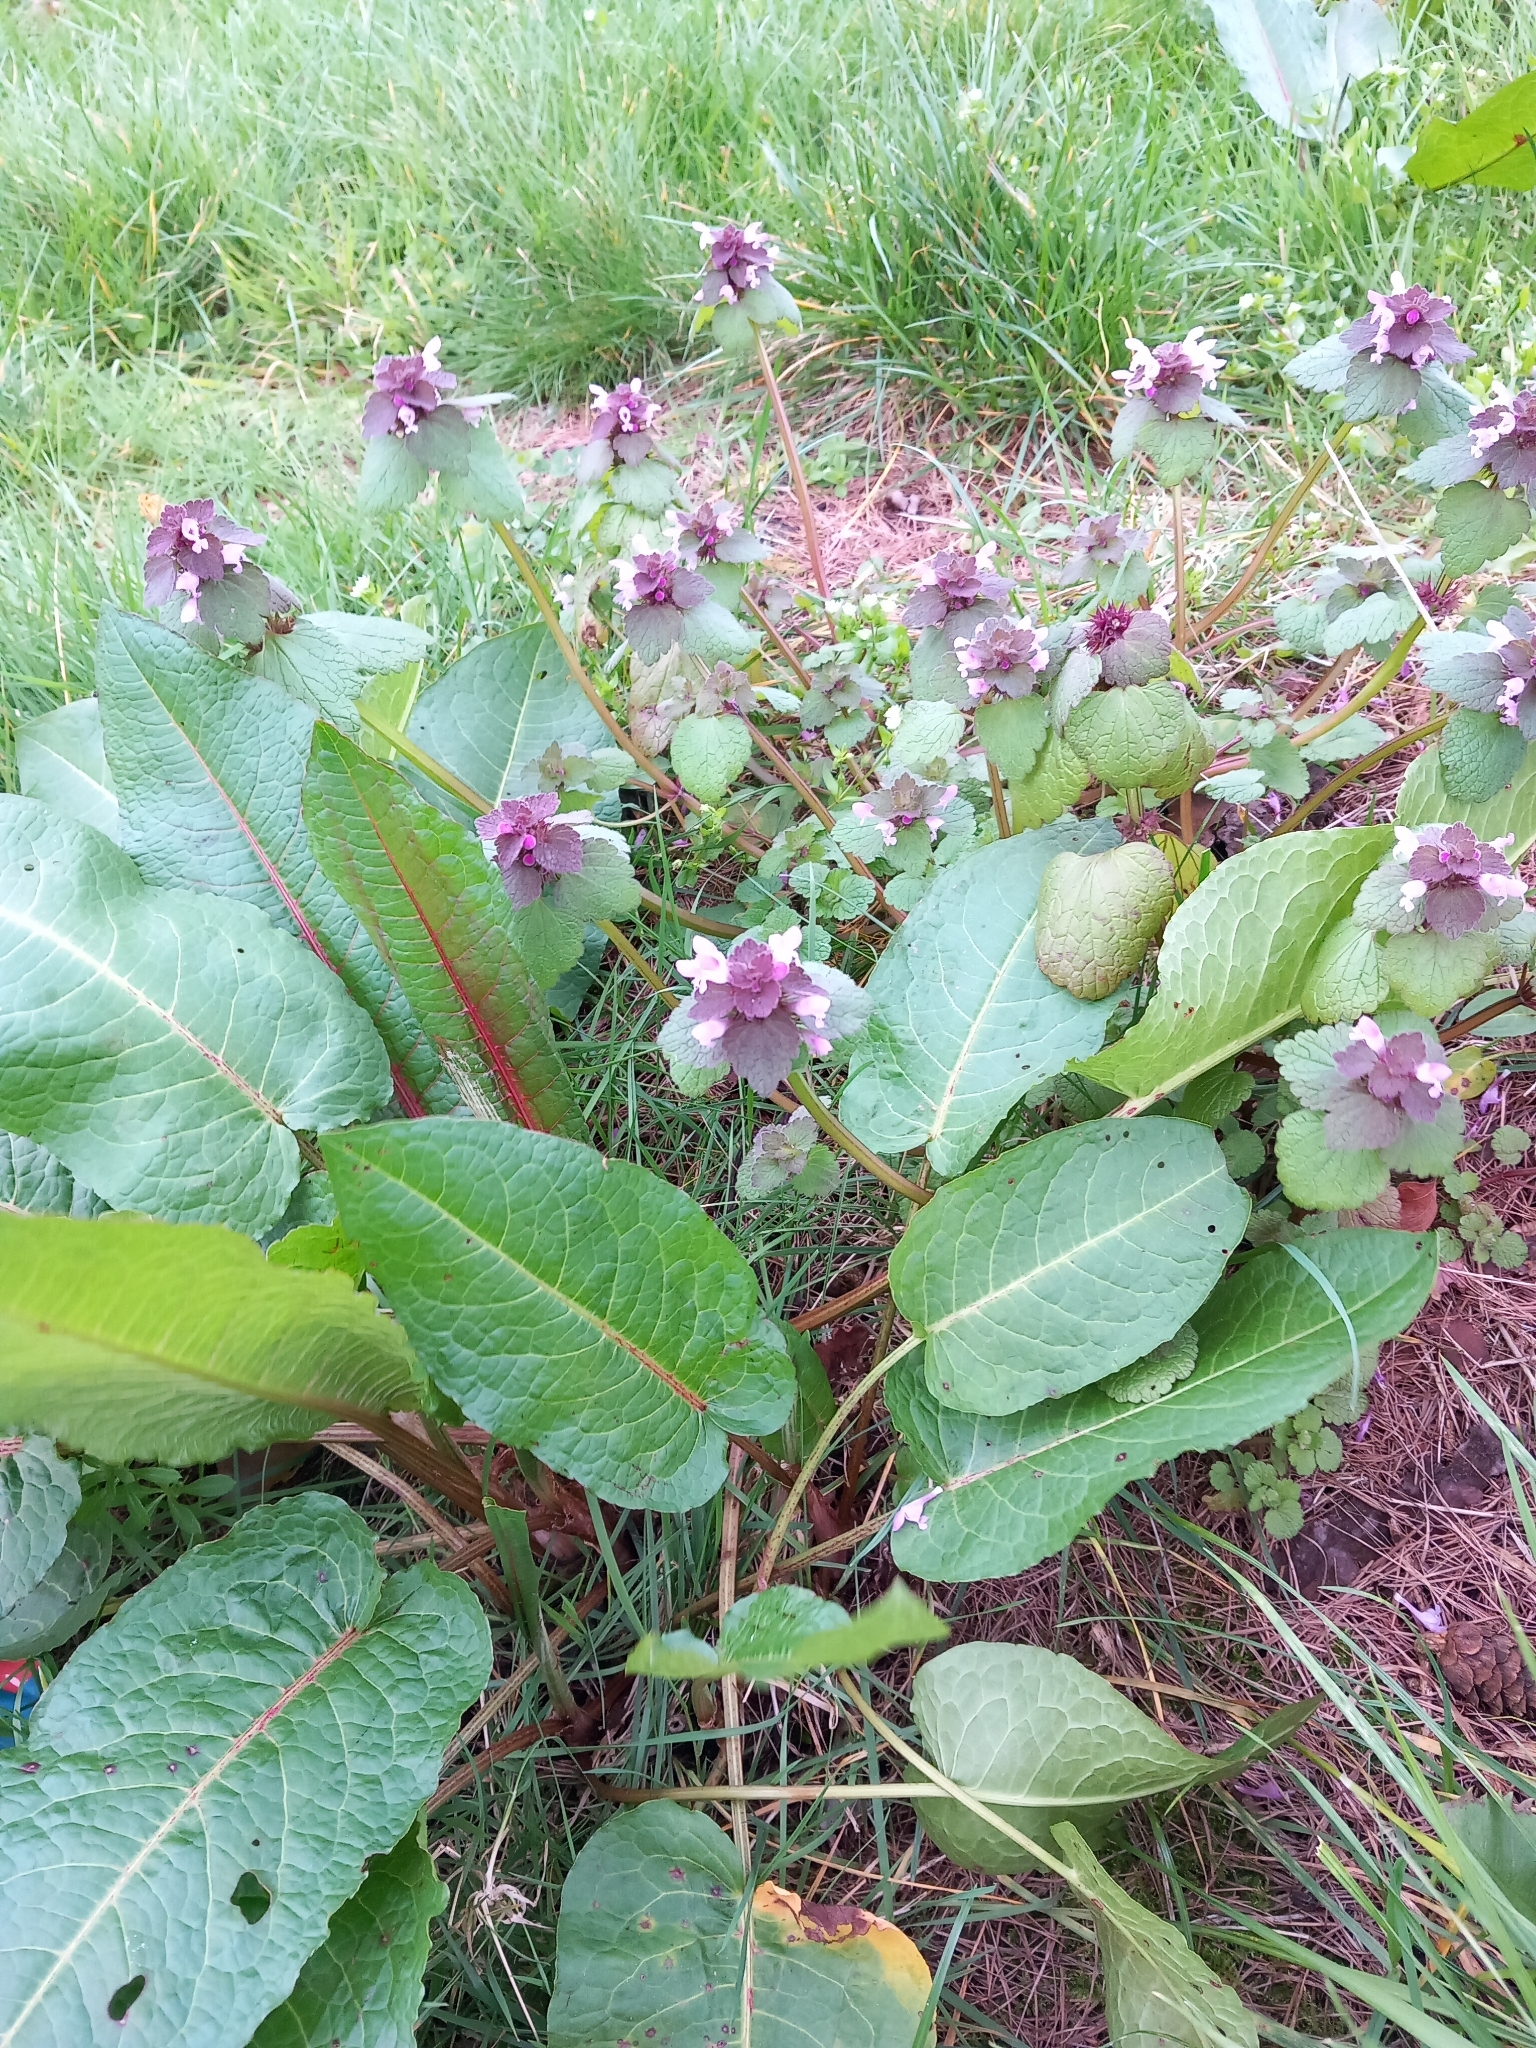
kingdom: Plantae
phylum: Tracheophyta
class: Magnoliopsida
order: Lamiales
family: Lamiaceae
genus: Lamium
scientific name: Lamium purpureum
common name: Red dead-nettle
